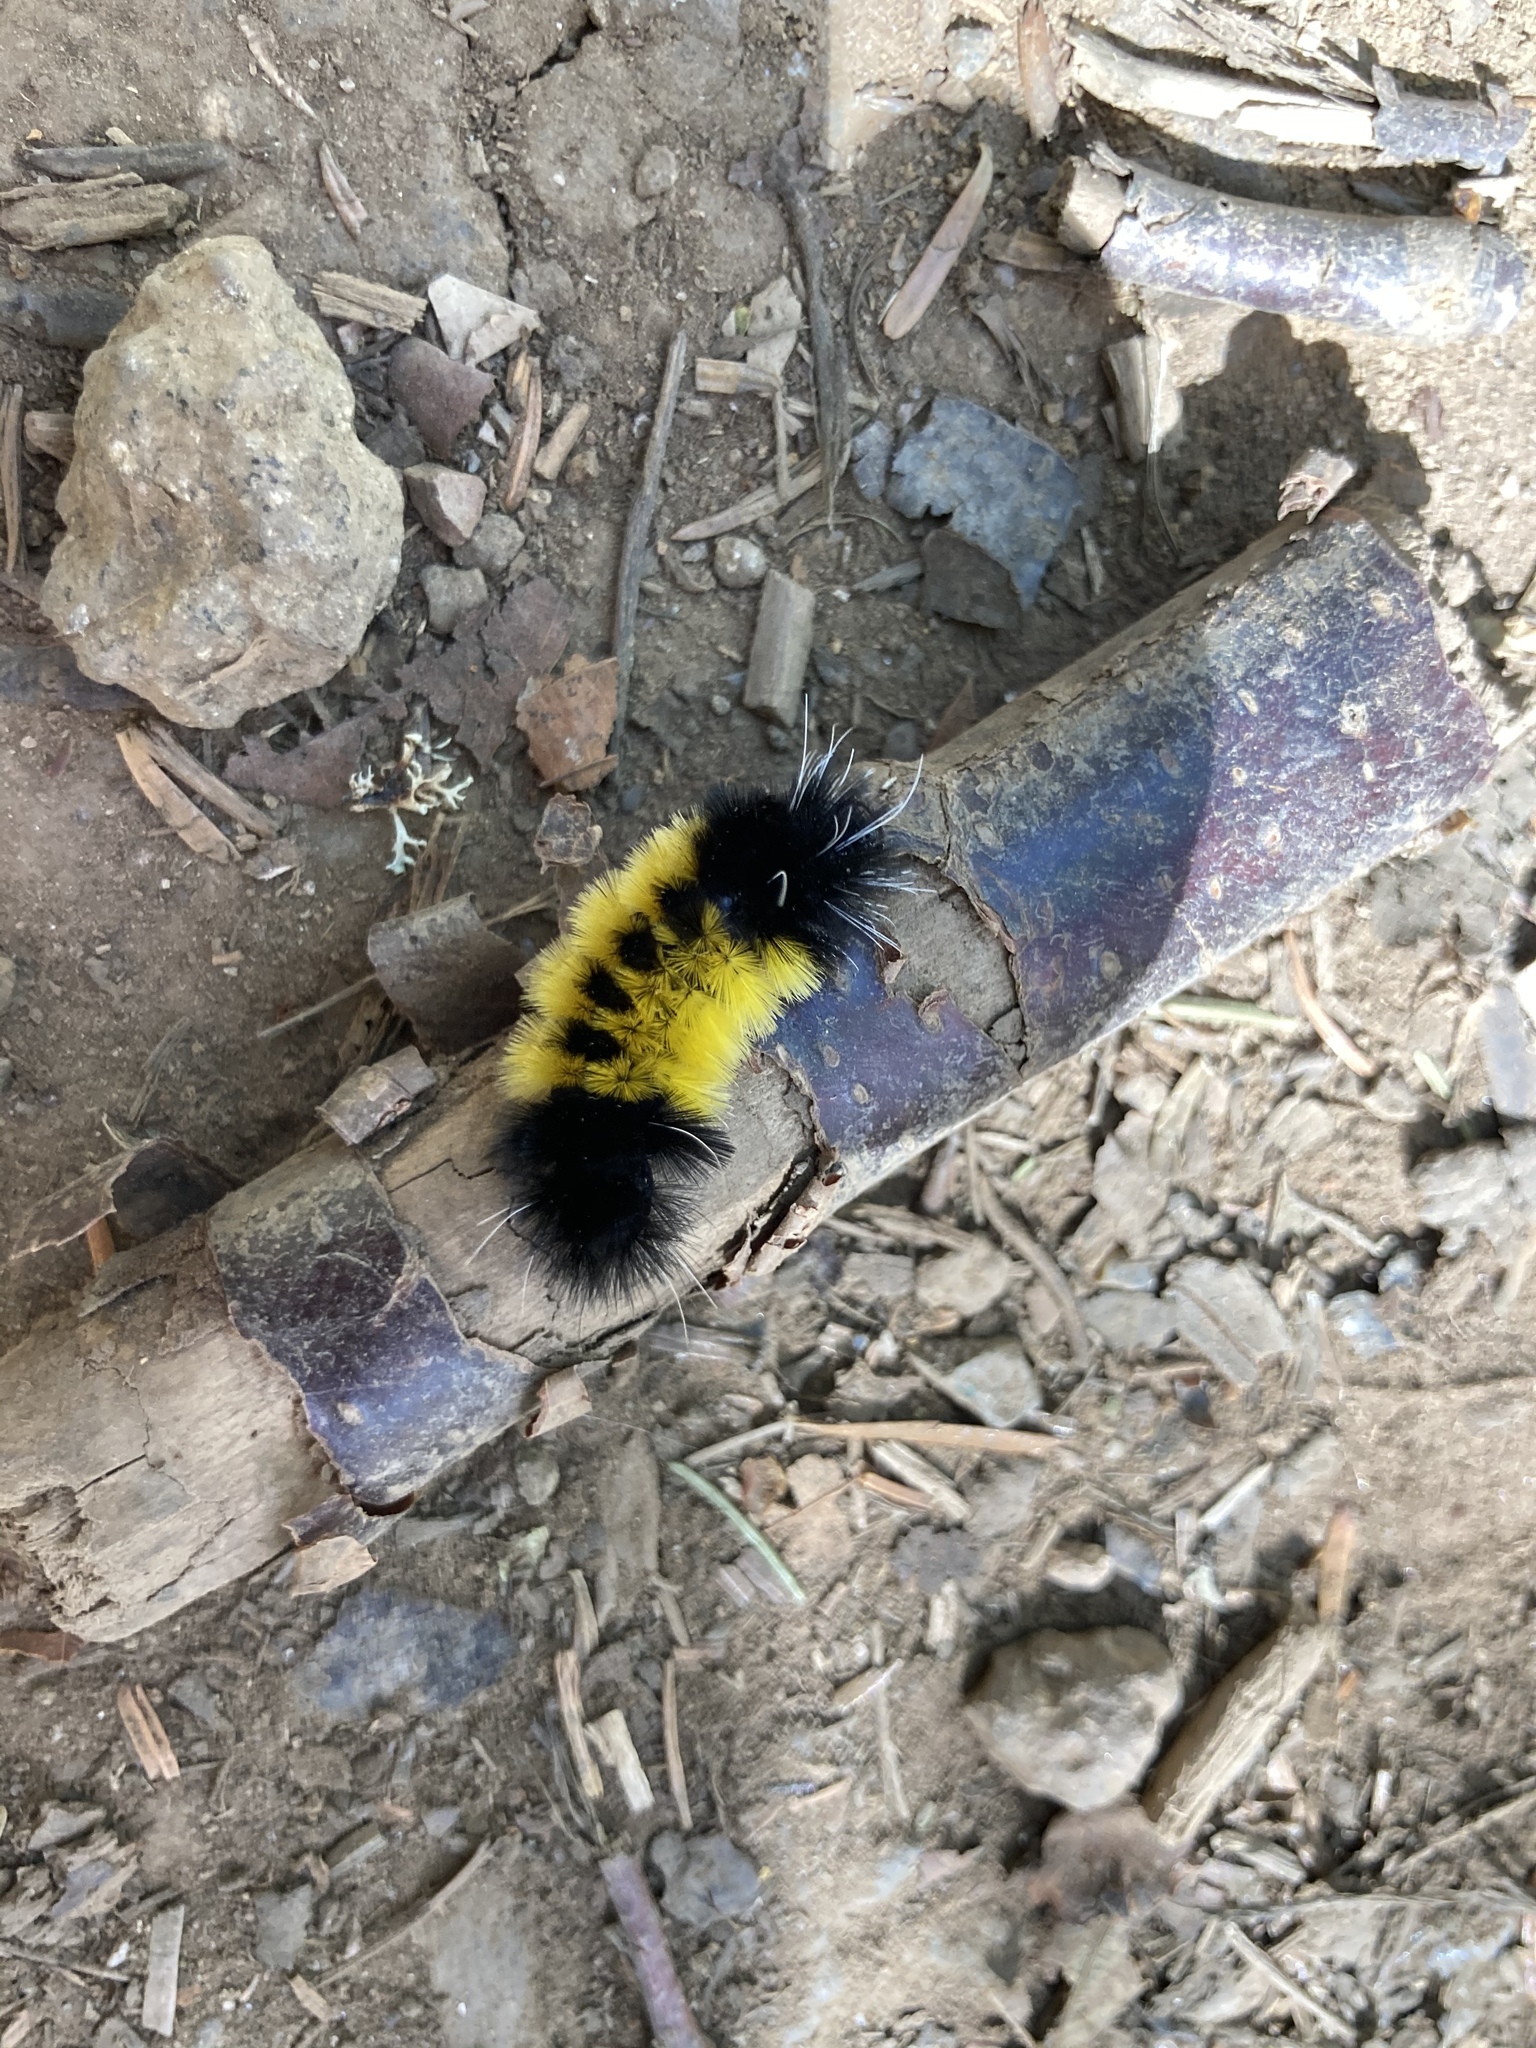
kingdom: Animalia
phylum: Arthropoda
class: Insecta
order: Lepidoptera
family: Erebidae
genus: Lophocampa
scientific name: Lophocampa maculata
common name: Spotted tussock moth
